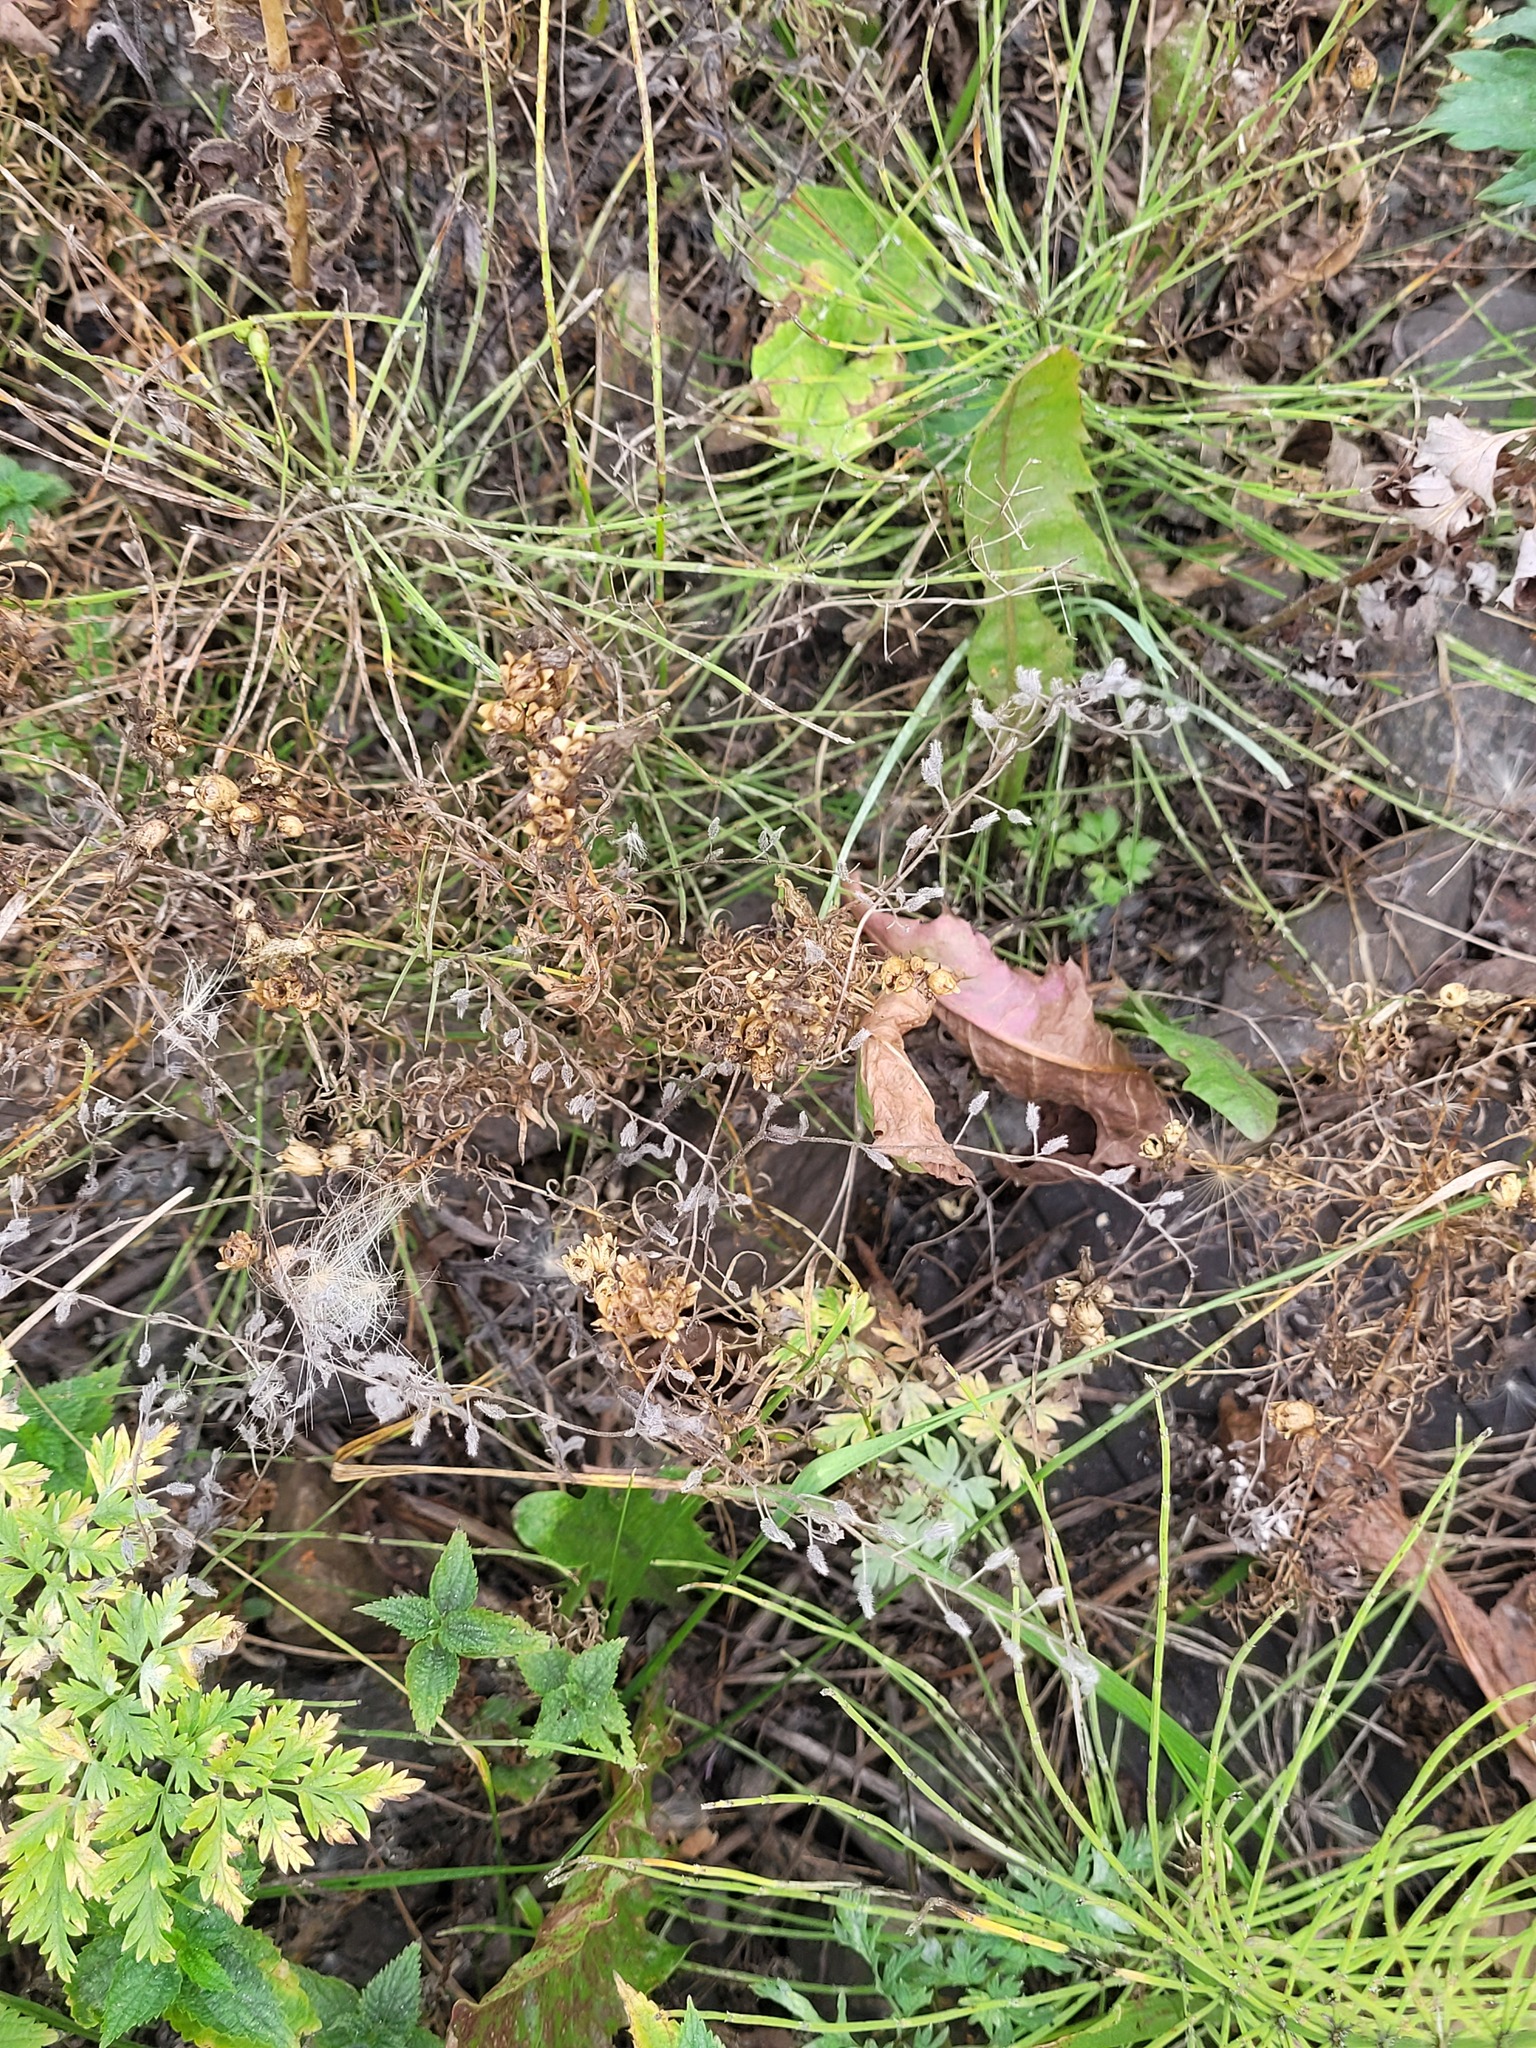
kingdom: Plantae
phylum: Tracheophyta
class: Magnoliopsida
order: Boraginales
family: Boraginaceae
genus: Myosotis
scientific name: Myosotis arvensis
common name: Field forget-me-not
